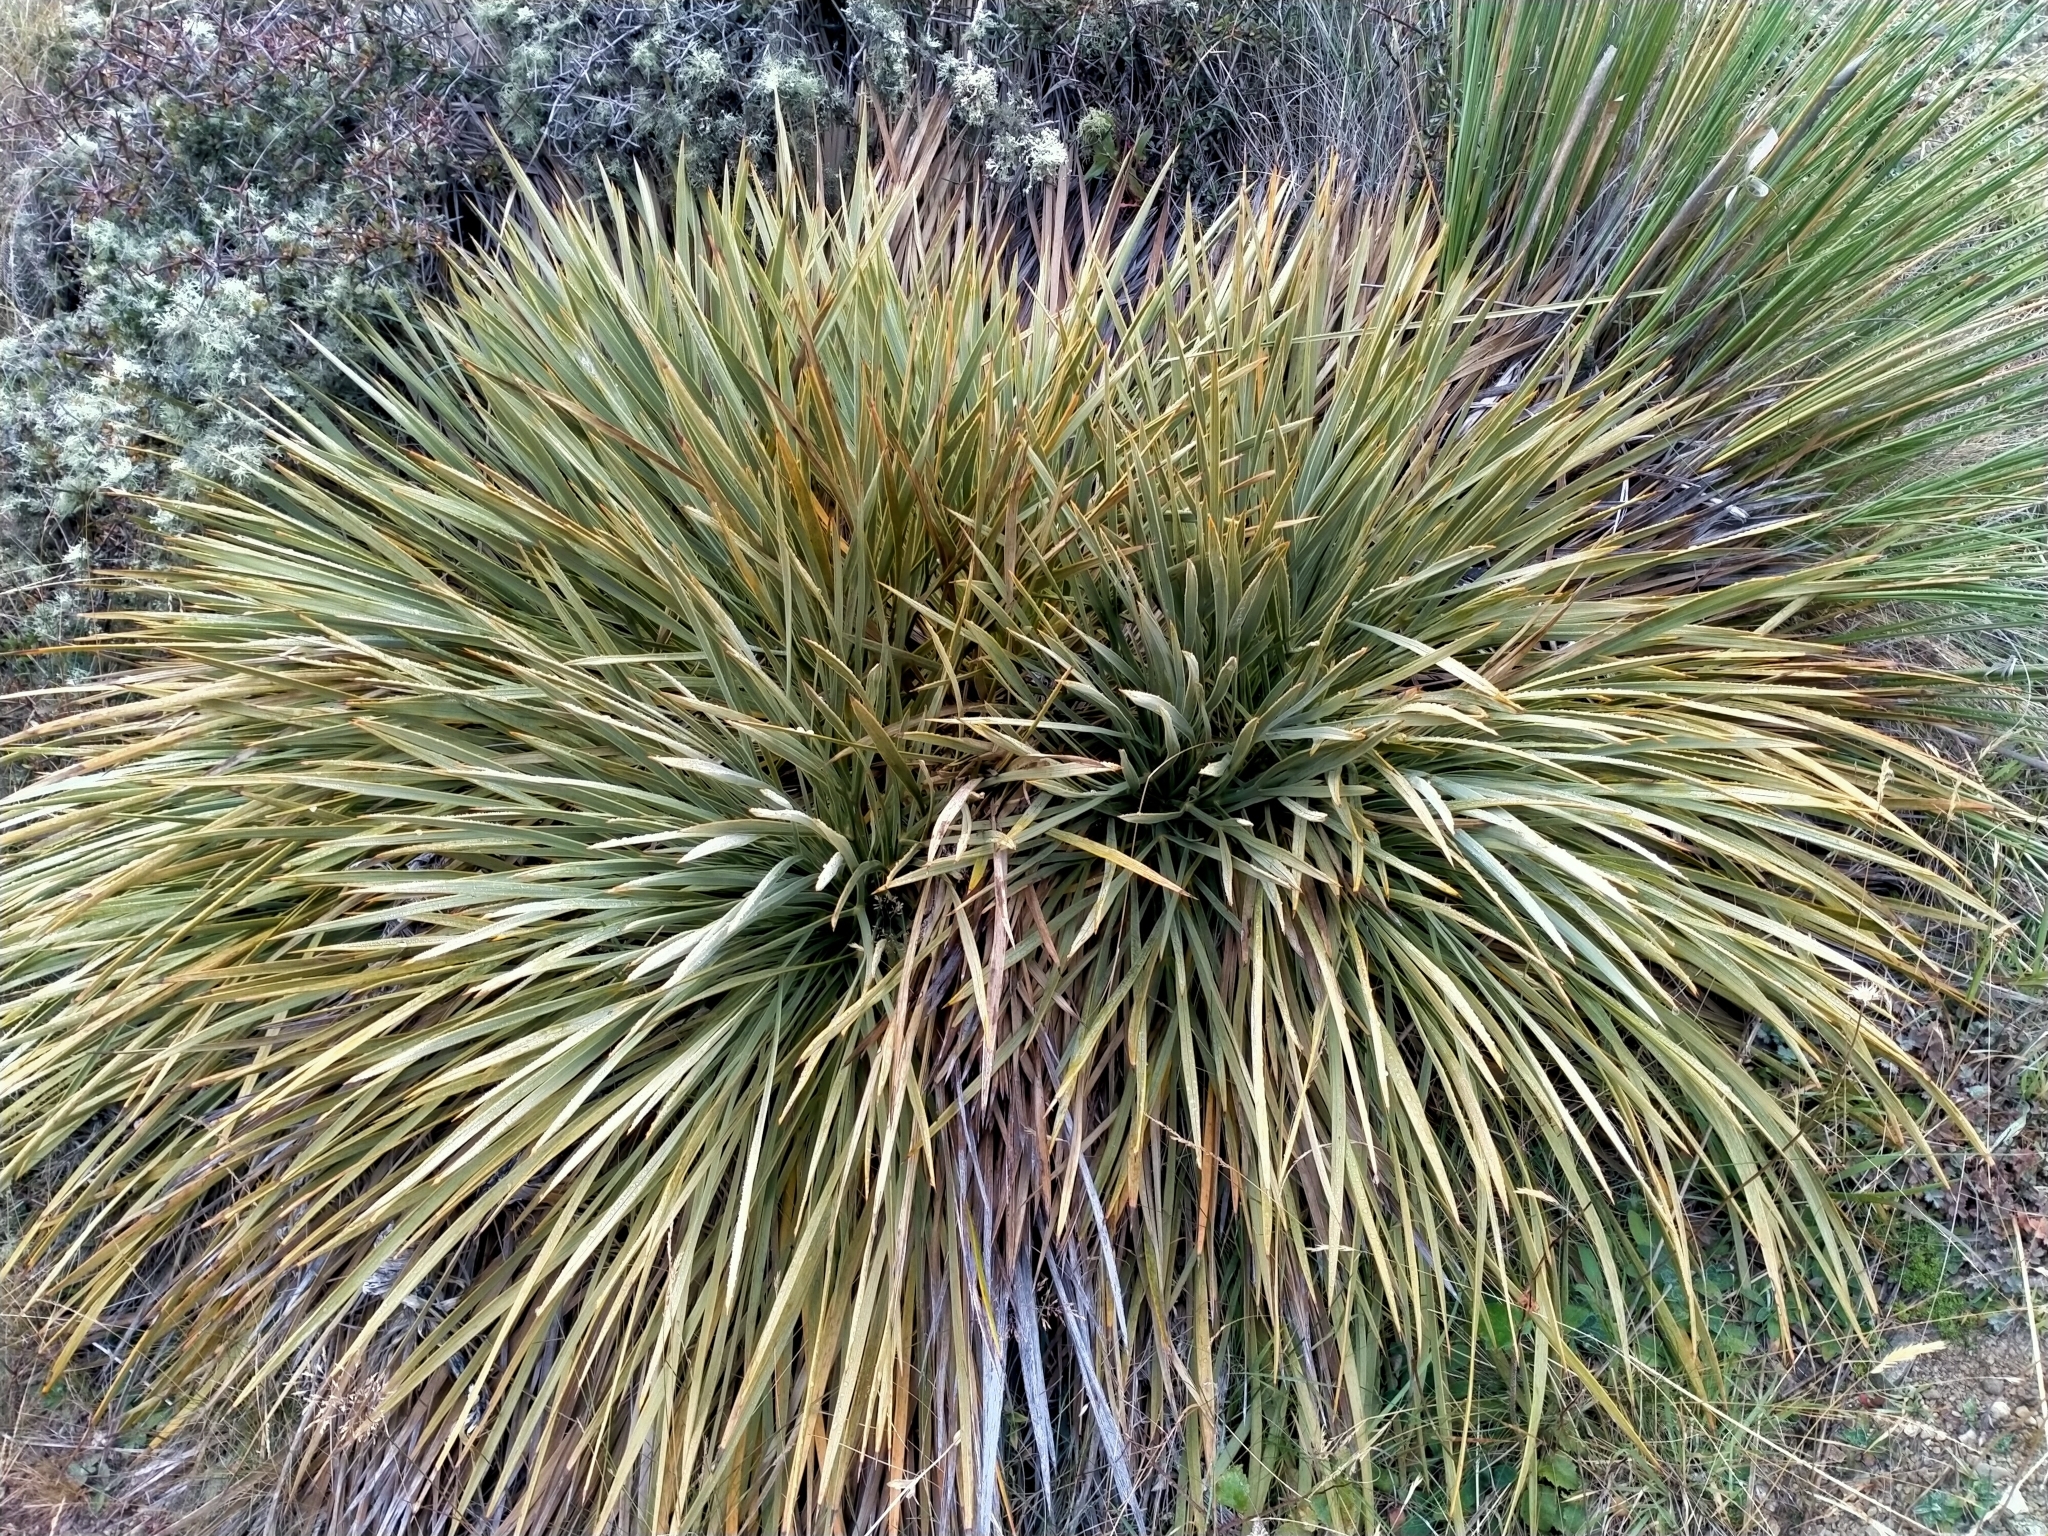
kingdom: Plantae
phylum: Tracheophyta
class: Magnoliopsida
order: Apiales
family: Apiaceae
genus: Aciphylla
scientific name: Aciphylla aurea
